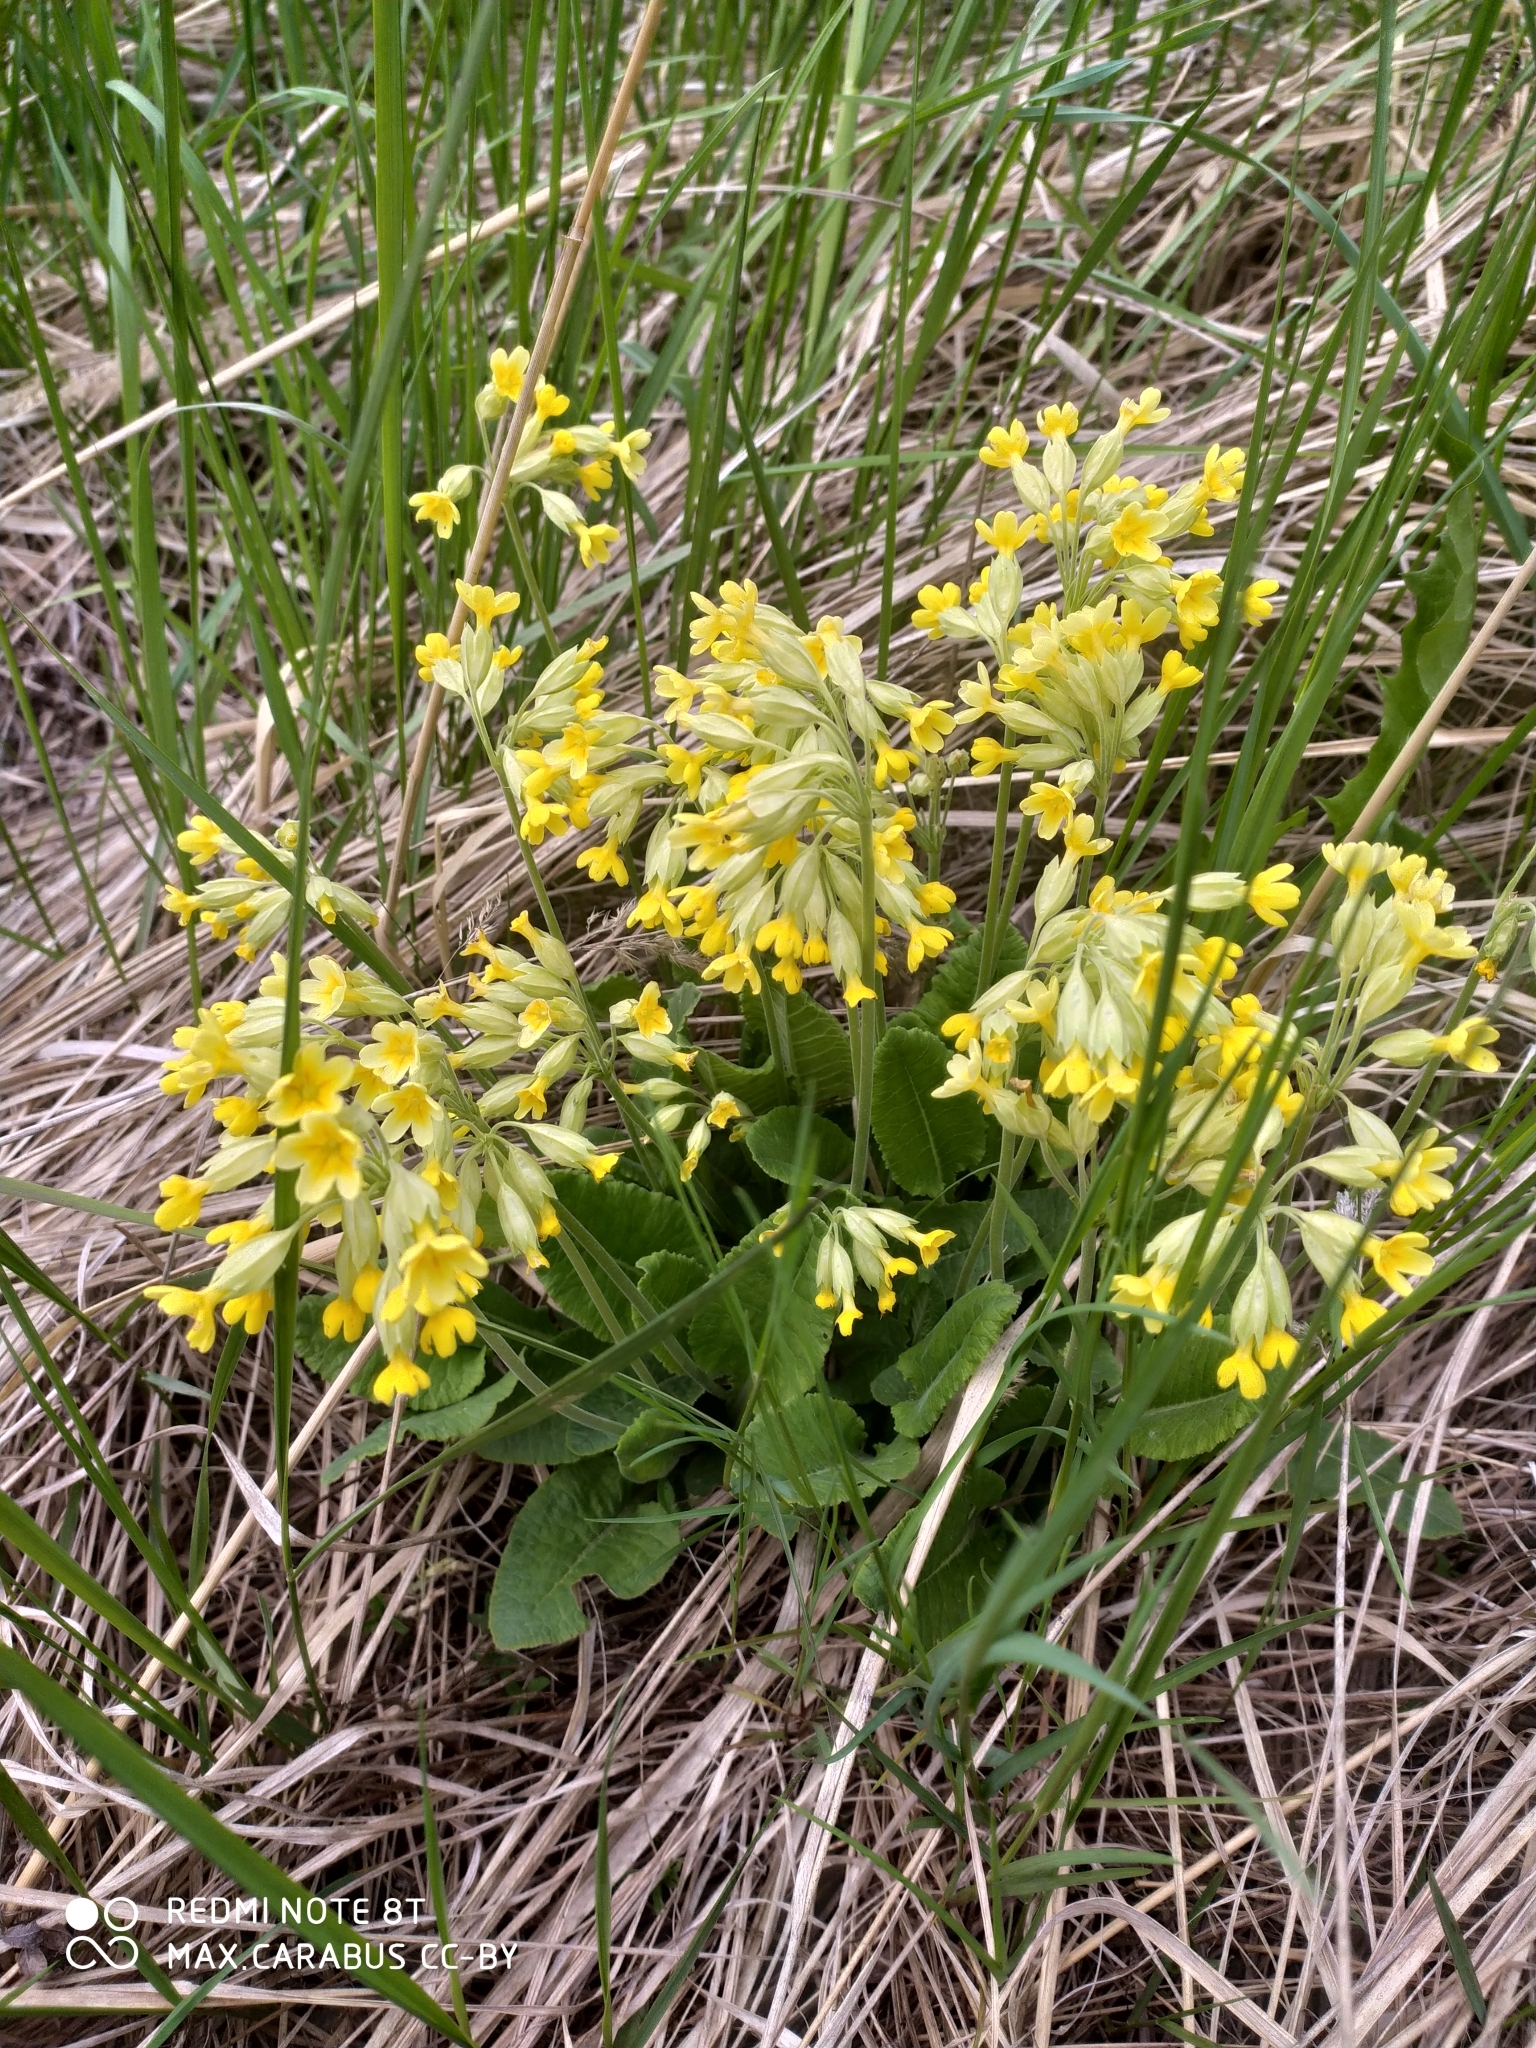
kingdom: Plantae
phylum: Tracheophyta
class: Magnoliopsida
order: Ericales
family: Primulaceae
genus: Primula
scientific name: Primula veris
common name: Cowslip
